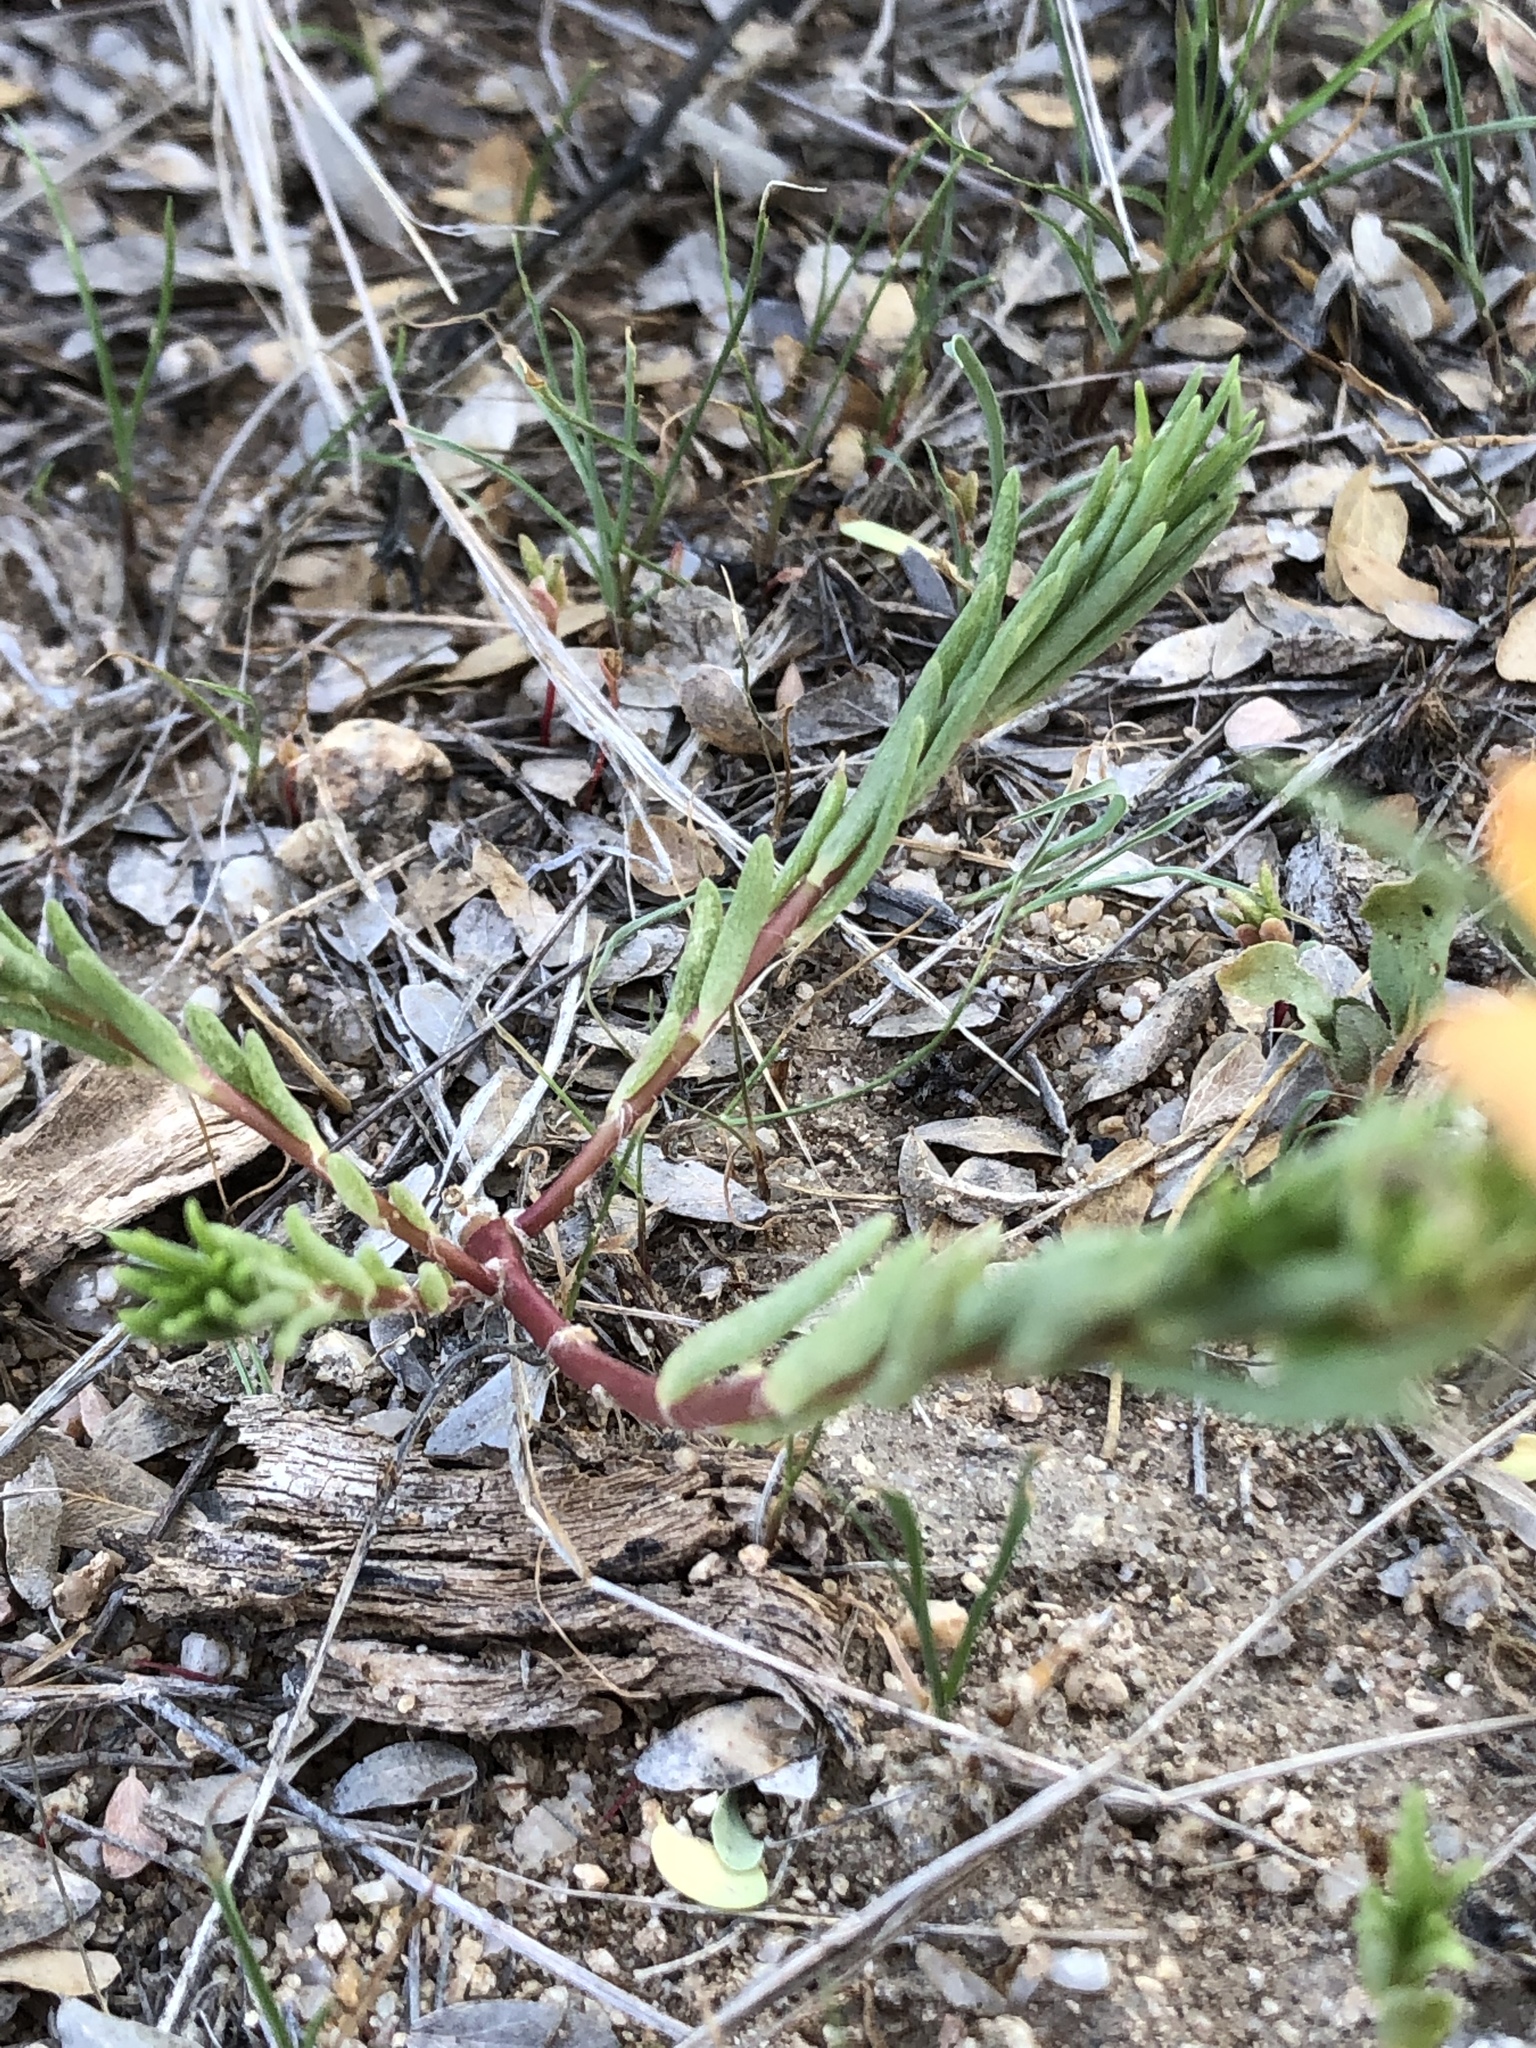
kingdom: Plantae
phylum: Tracheophyta
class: Magnoliopsida
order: Caryophyllales
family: Portulacaceae
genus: Portulaca
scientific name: Portulaca suffrutescens
